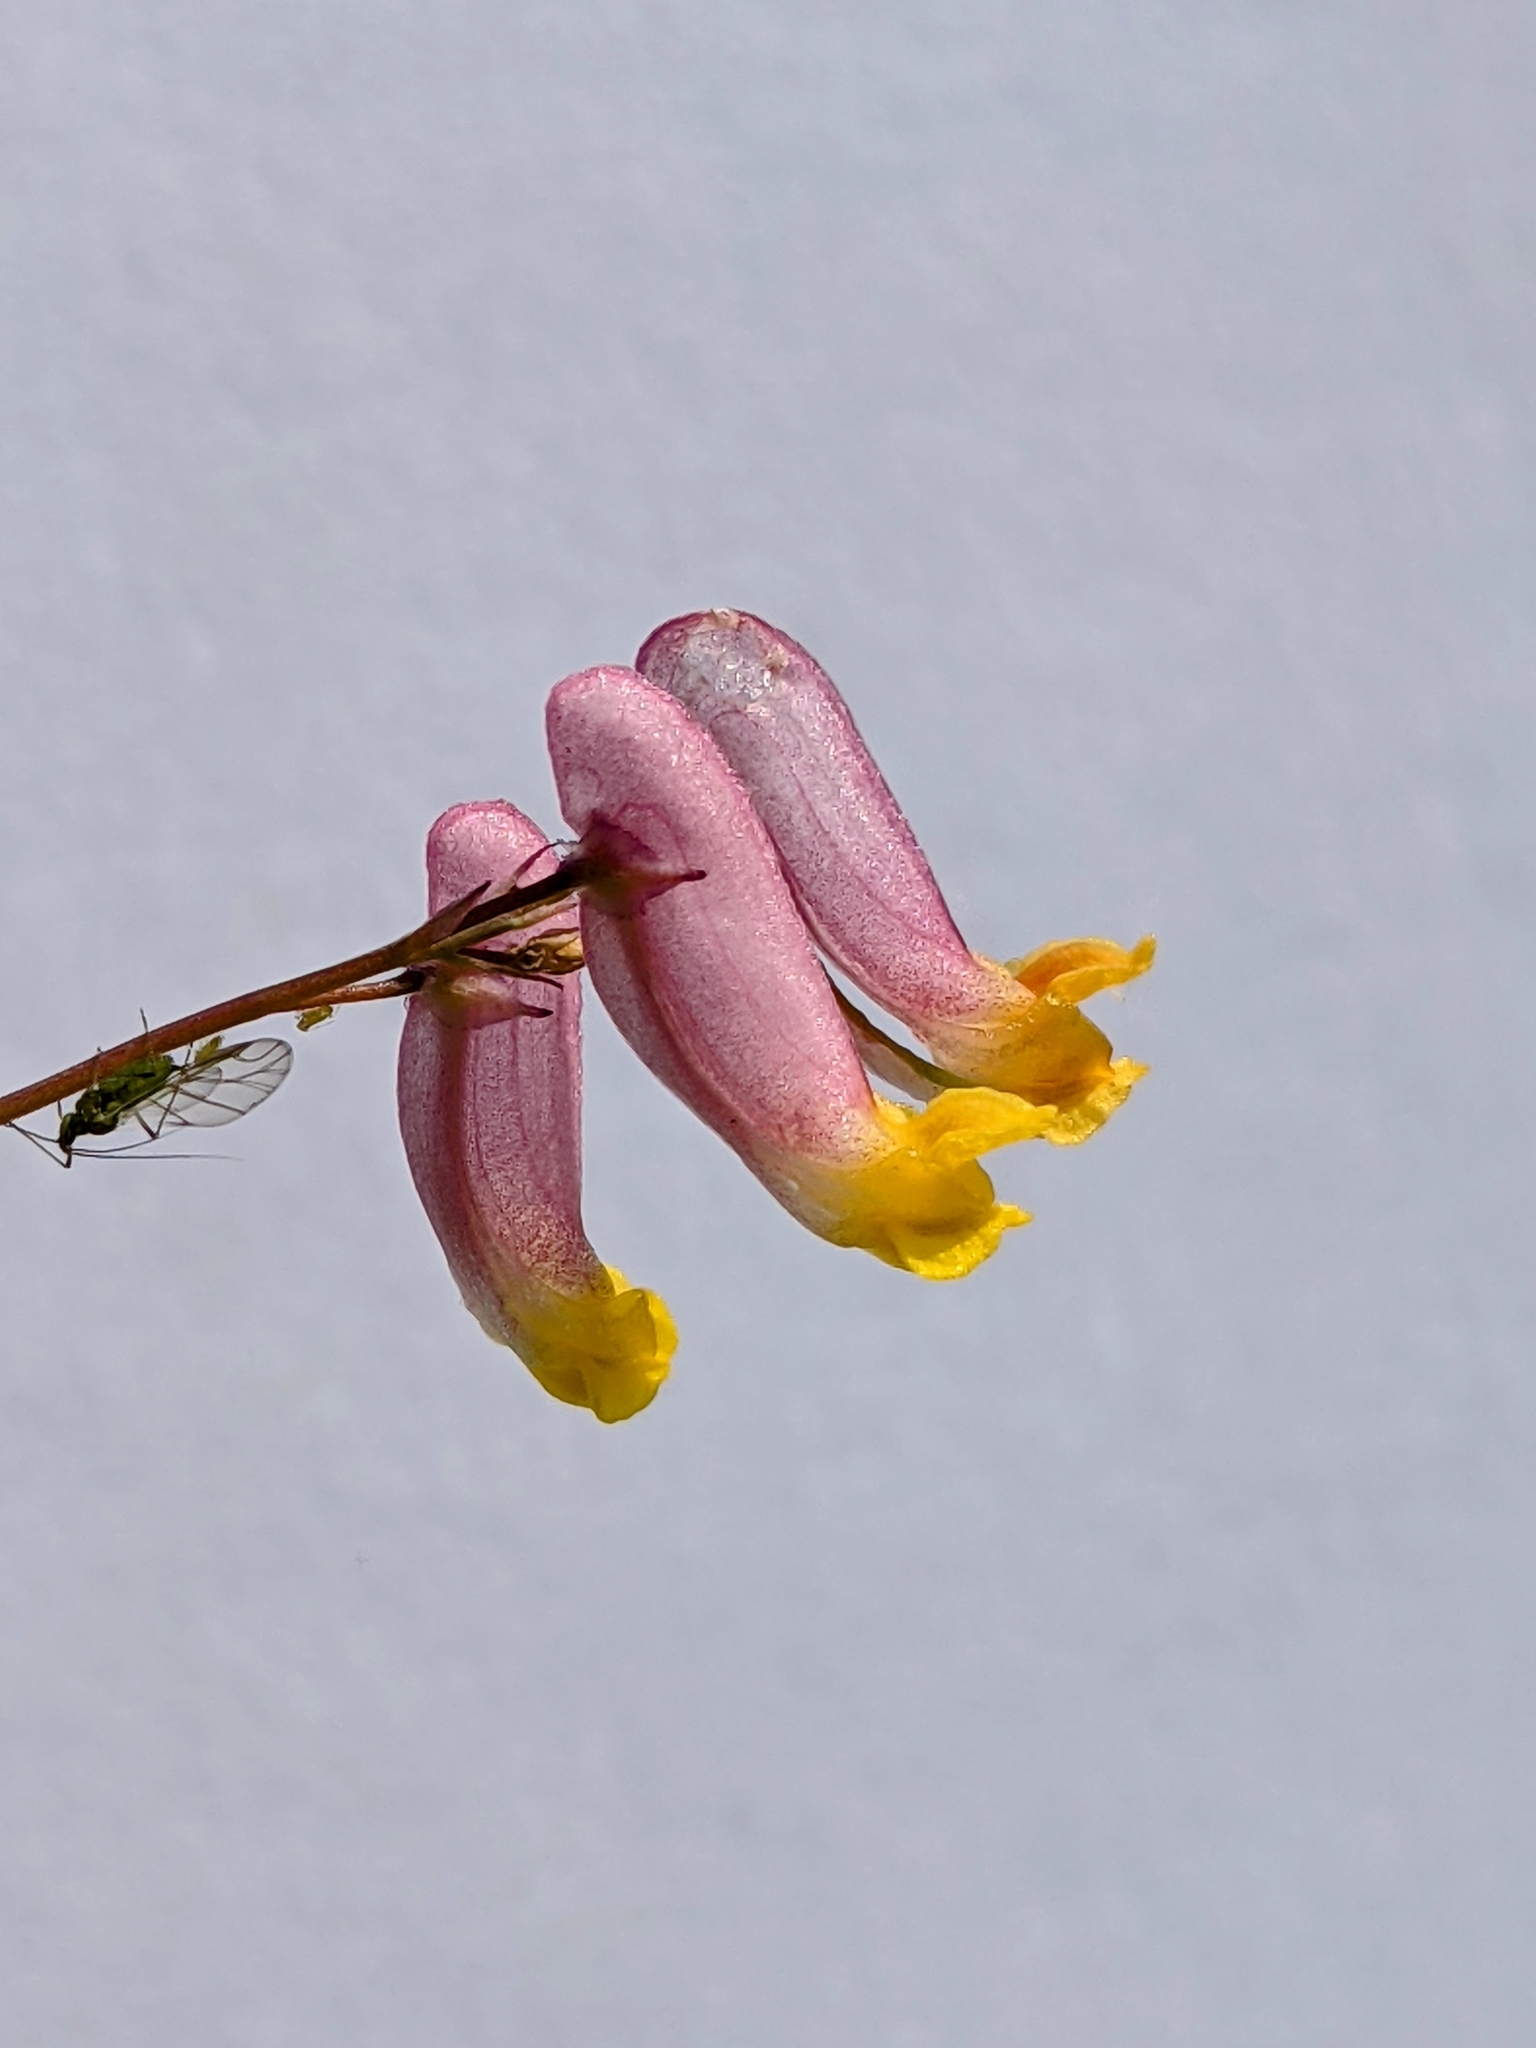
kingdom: Plantae
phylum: Tracheophyta
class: Magnoliopsida
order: Ranunculales
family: Papaveraceae
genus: Capnoides
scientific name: Capnoides sempervirens
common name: Rock harlequin
